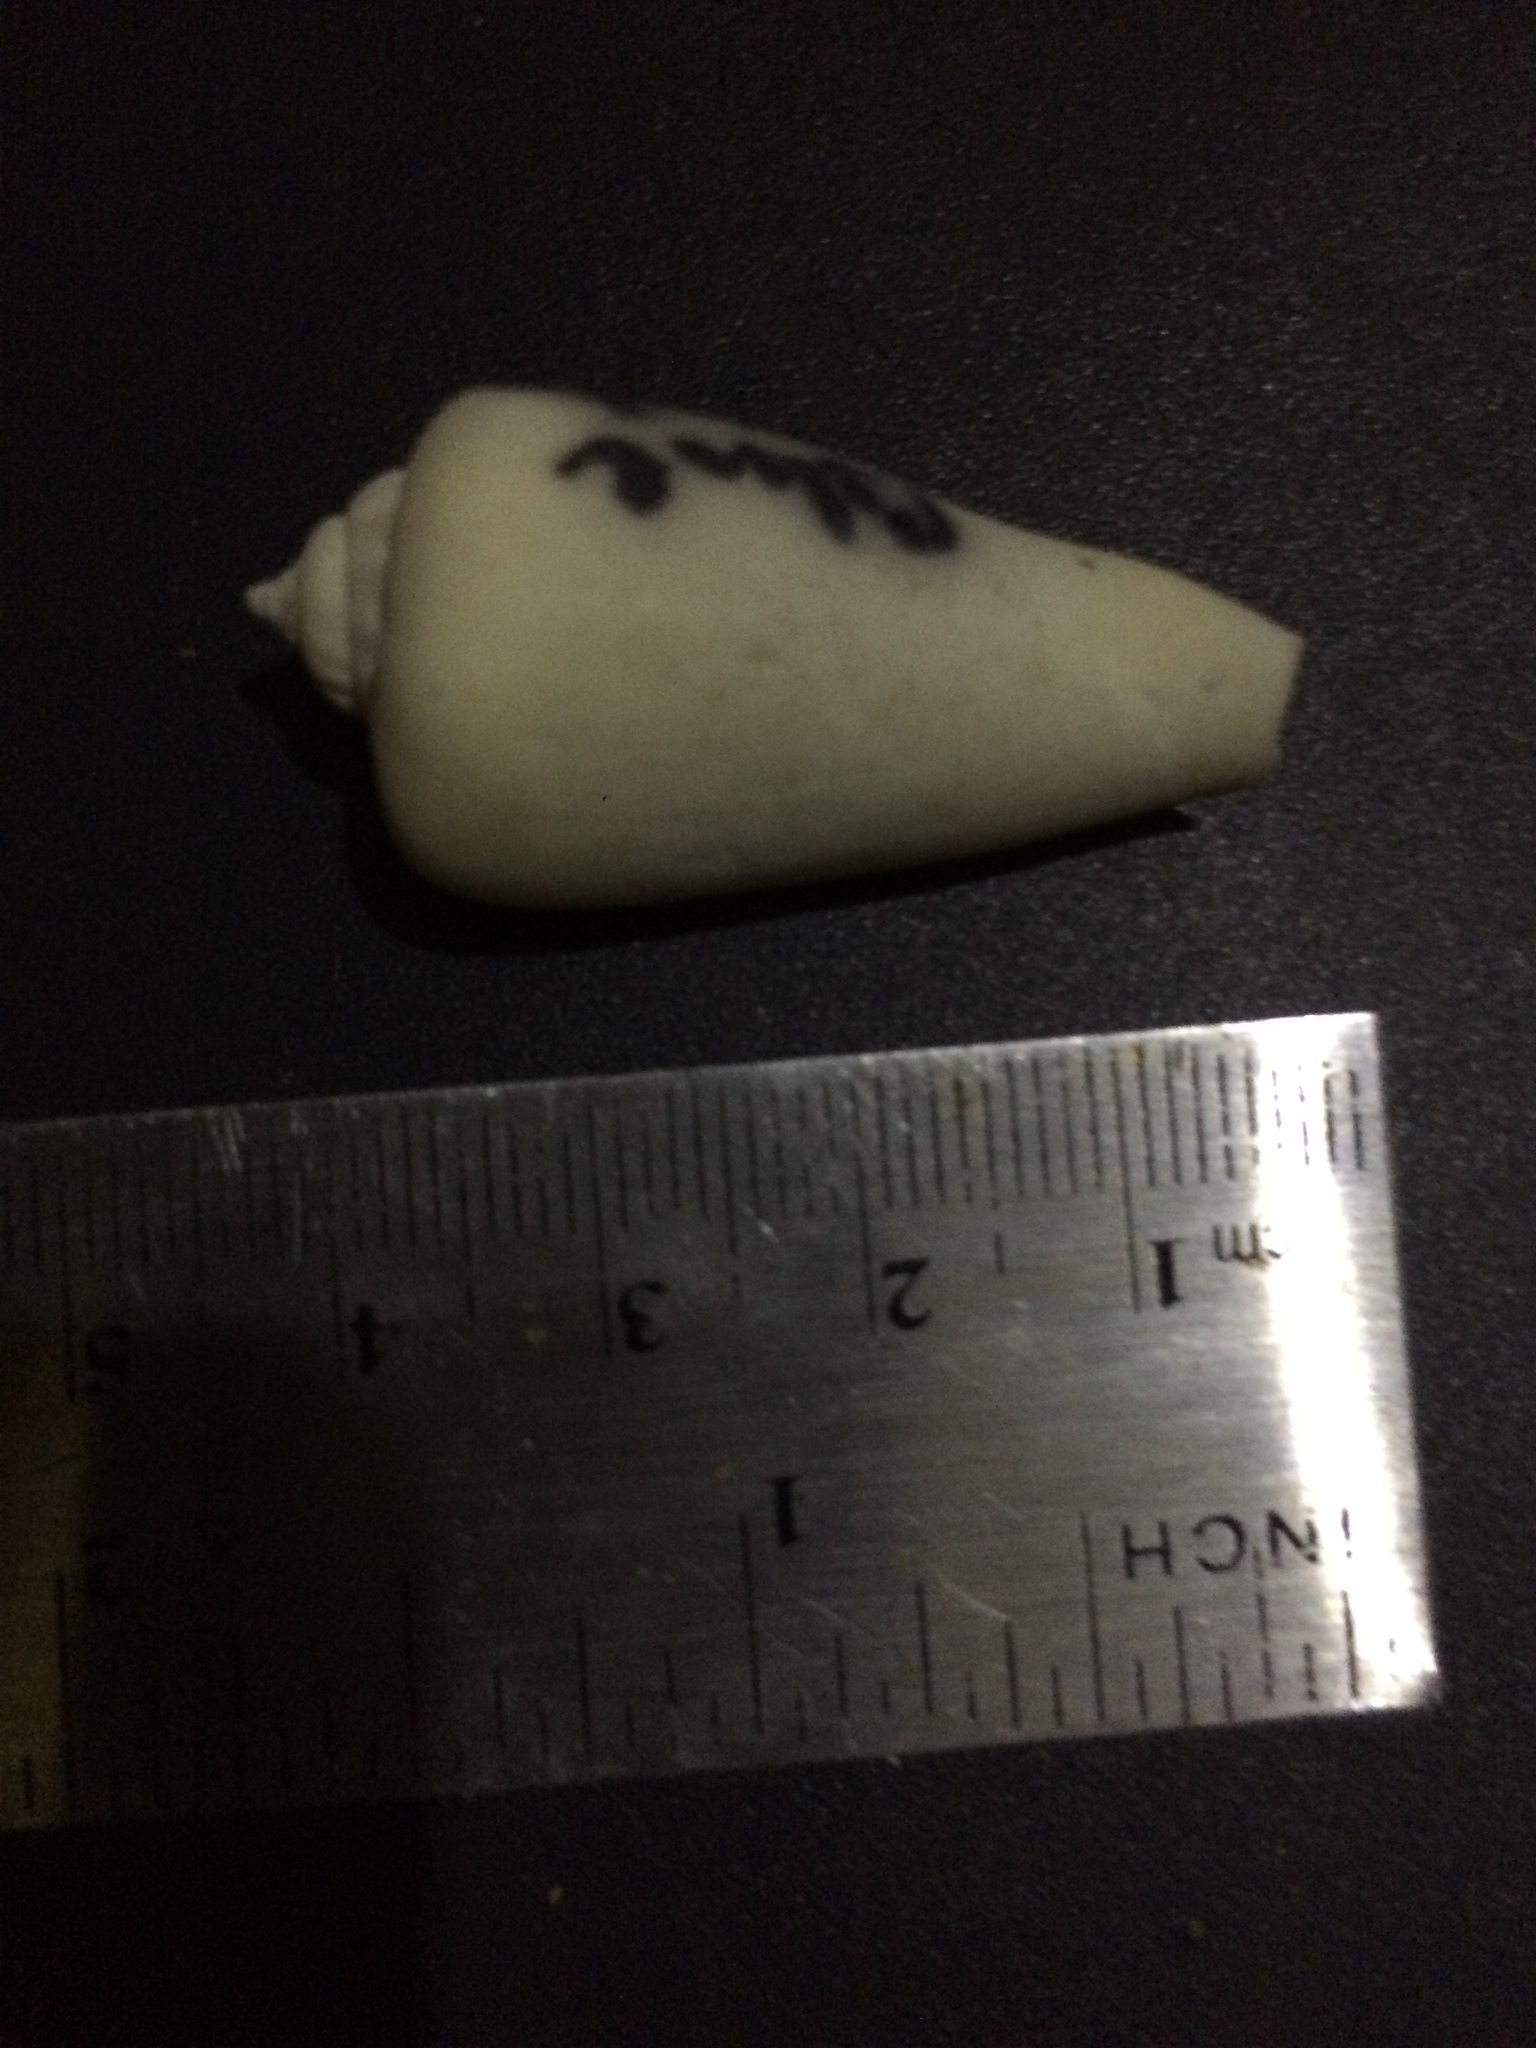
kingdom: Animalia
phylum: Mollusca
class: Gastropoda
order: Littorinimorpha
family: Strombidae
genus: Conomurex
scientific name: Conomurex luhuanus
